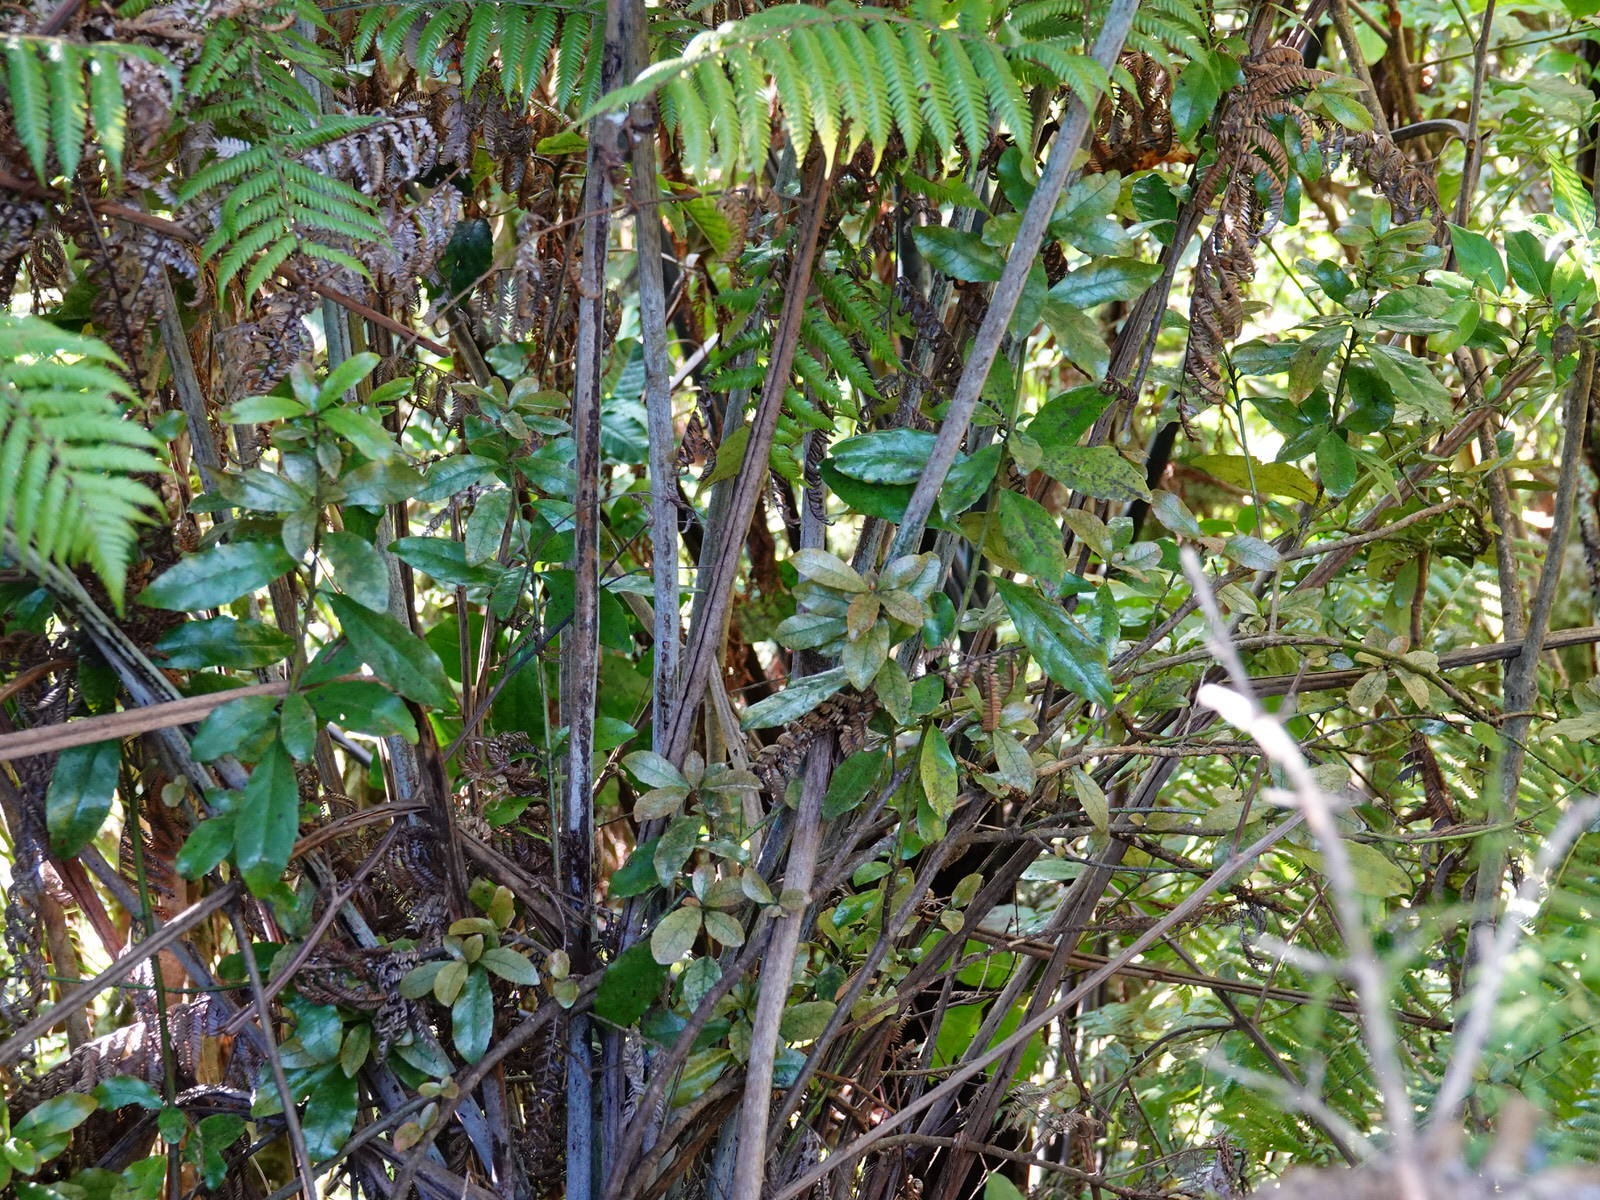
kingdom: Plantae
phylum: Tracheophyta
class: Magnoliopsida
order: Asterales
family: Alseuosmiaceae
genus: Alseuosmia
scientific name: Alseuosmia macrophylla
